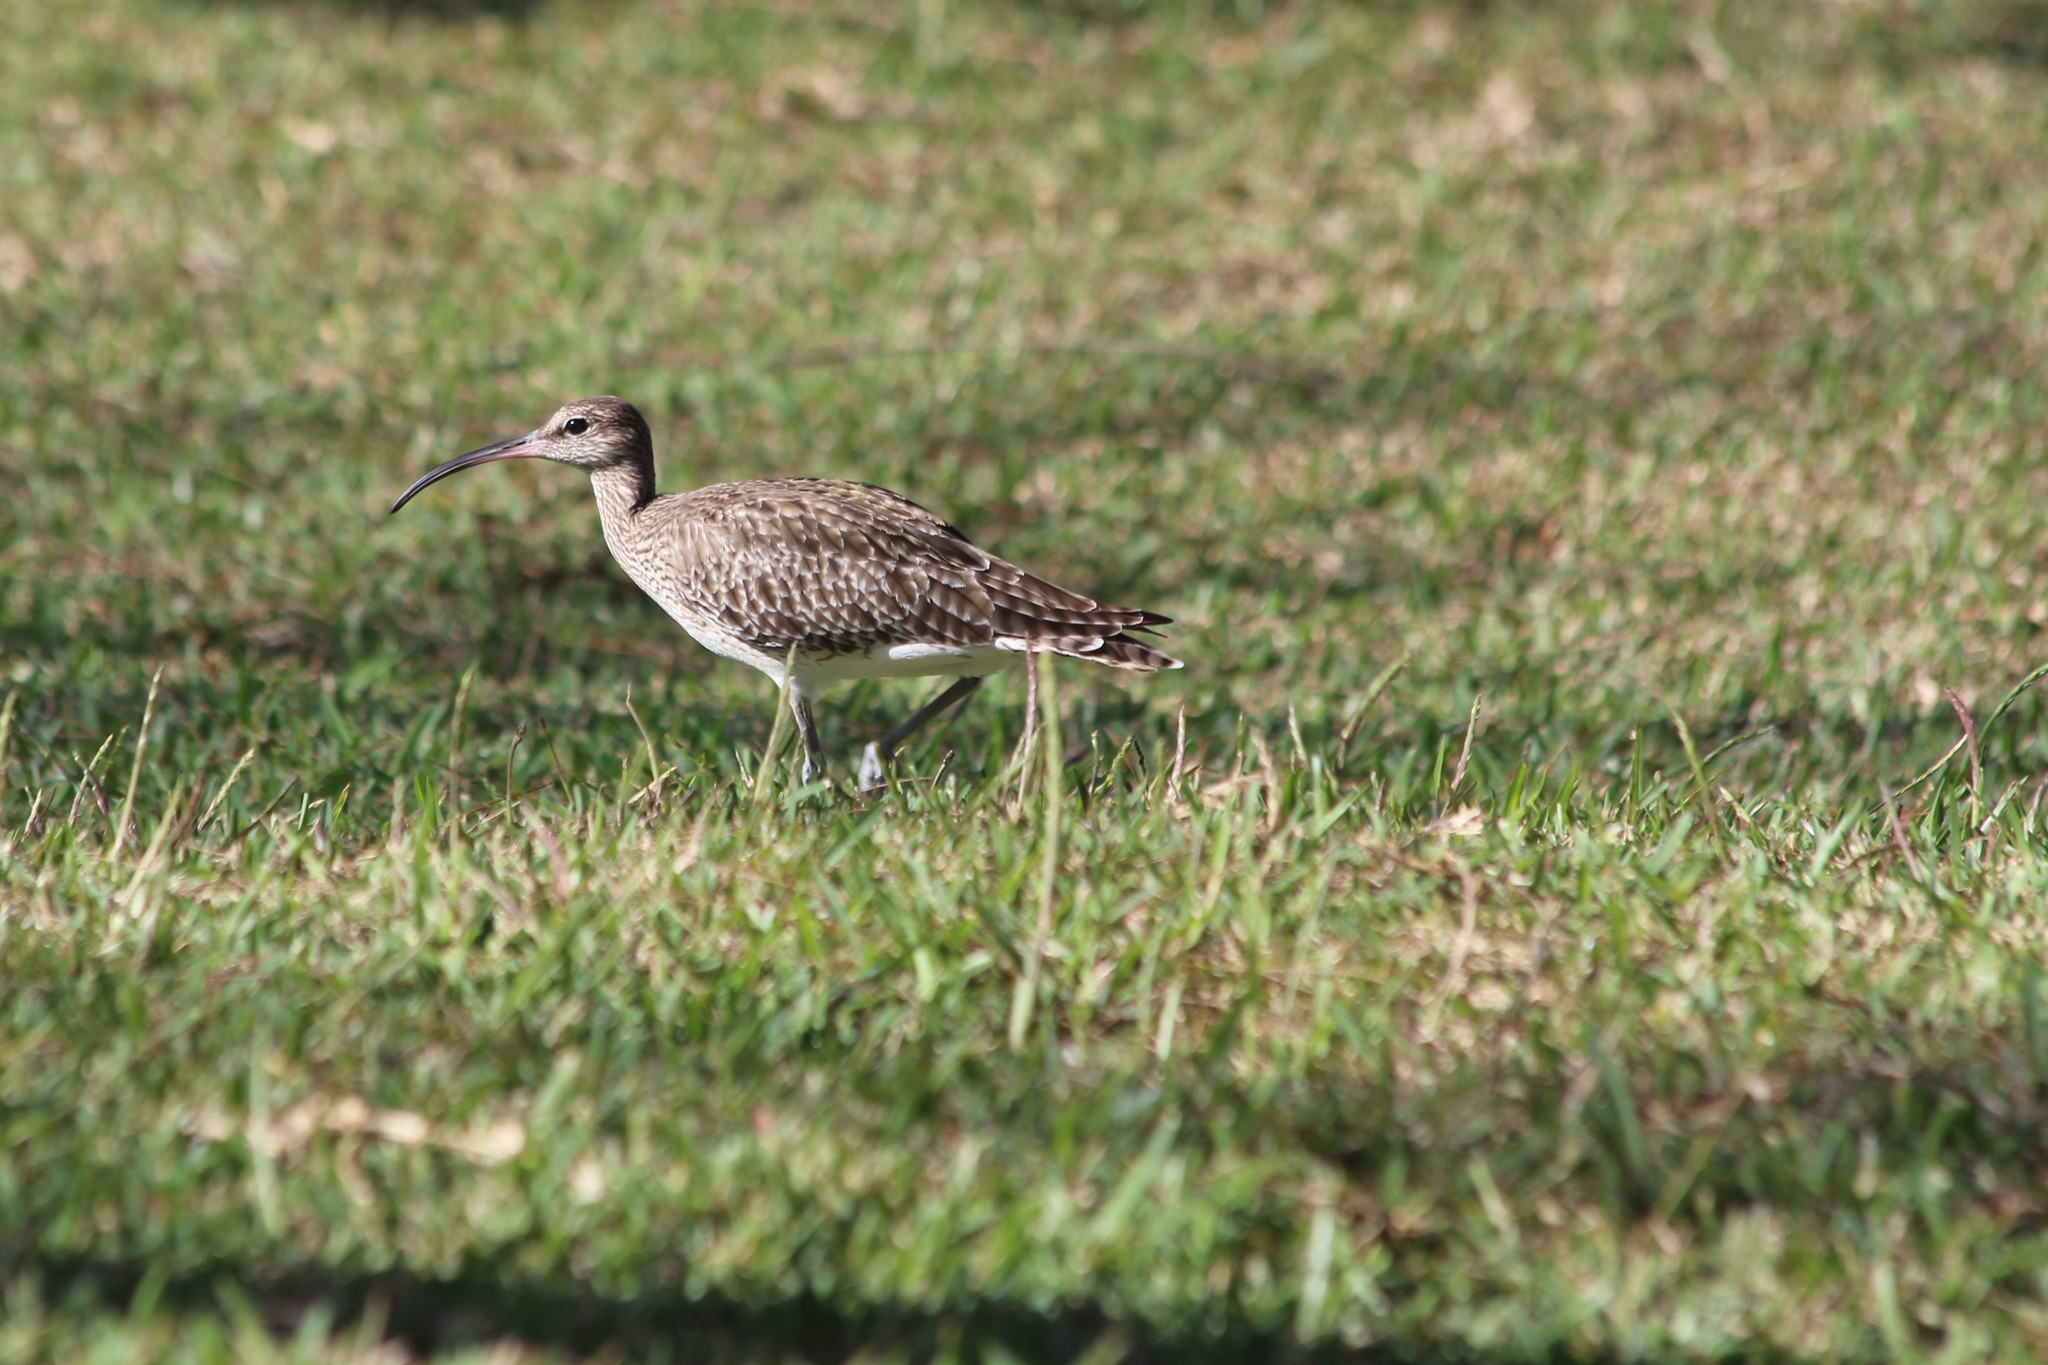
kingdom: Animalia
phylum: Chordata
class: Aves
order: Charadriiformes
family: Scolopacidae
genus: Numenius
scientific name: Numenius phaeopus
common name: Whimbrel
